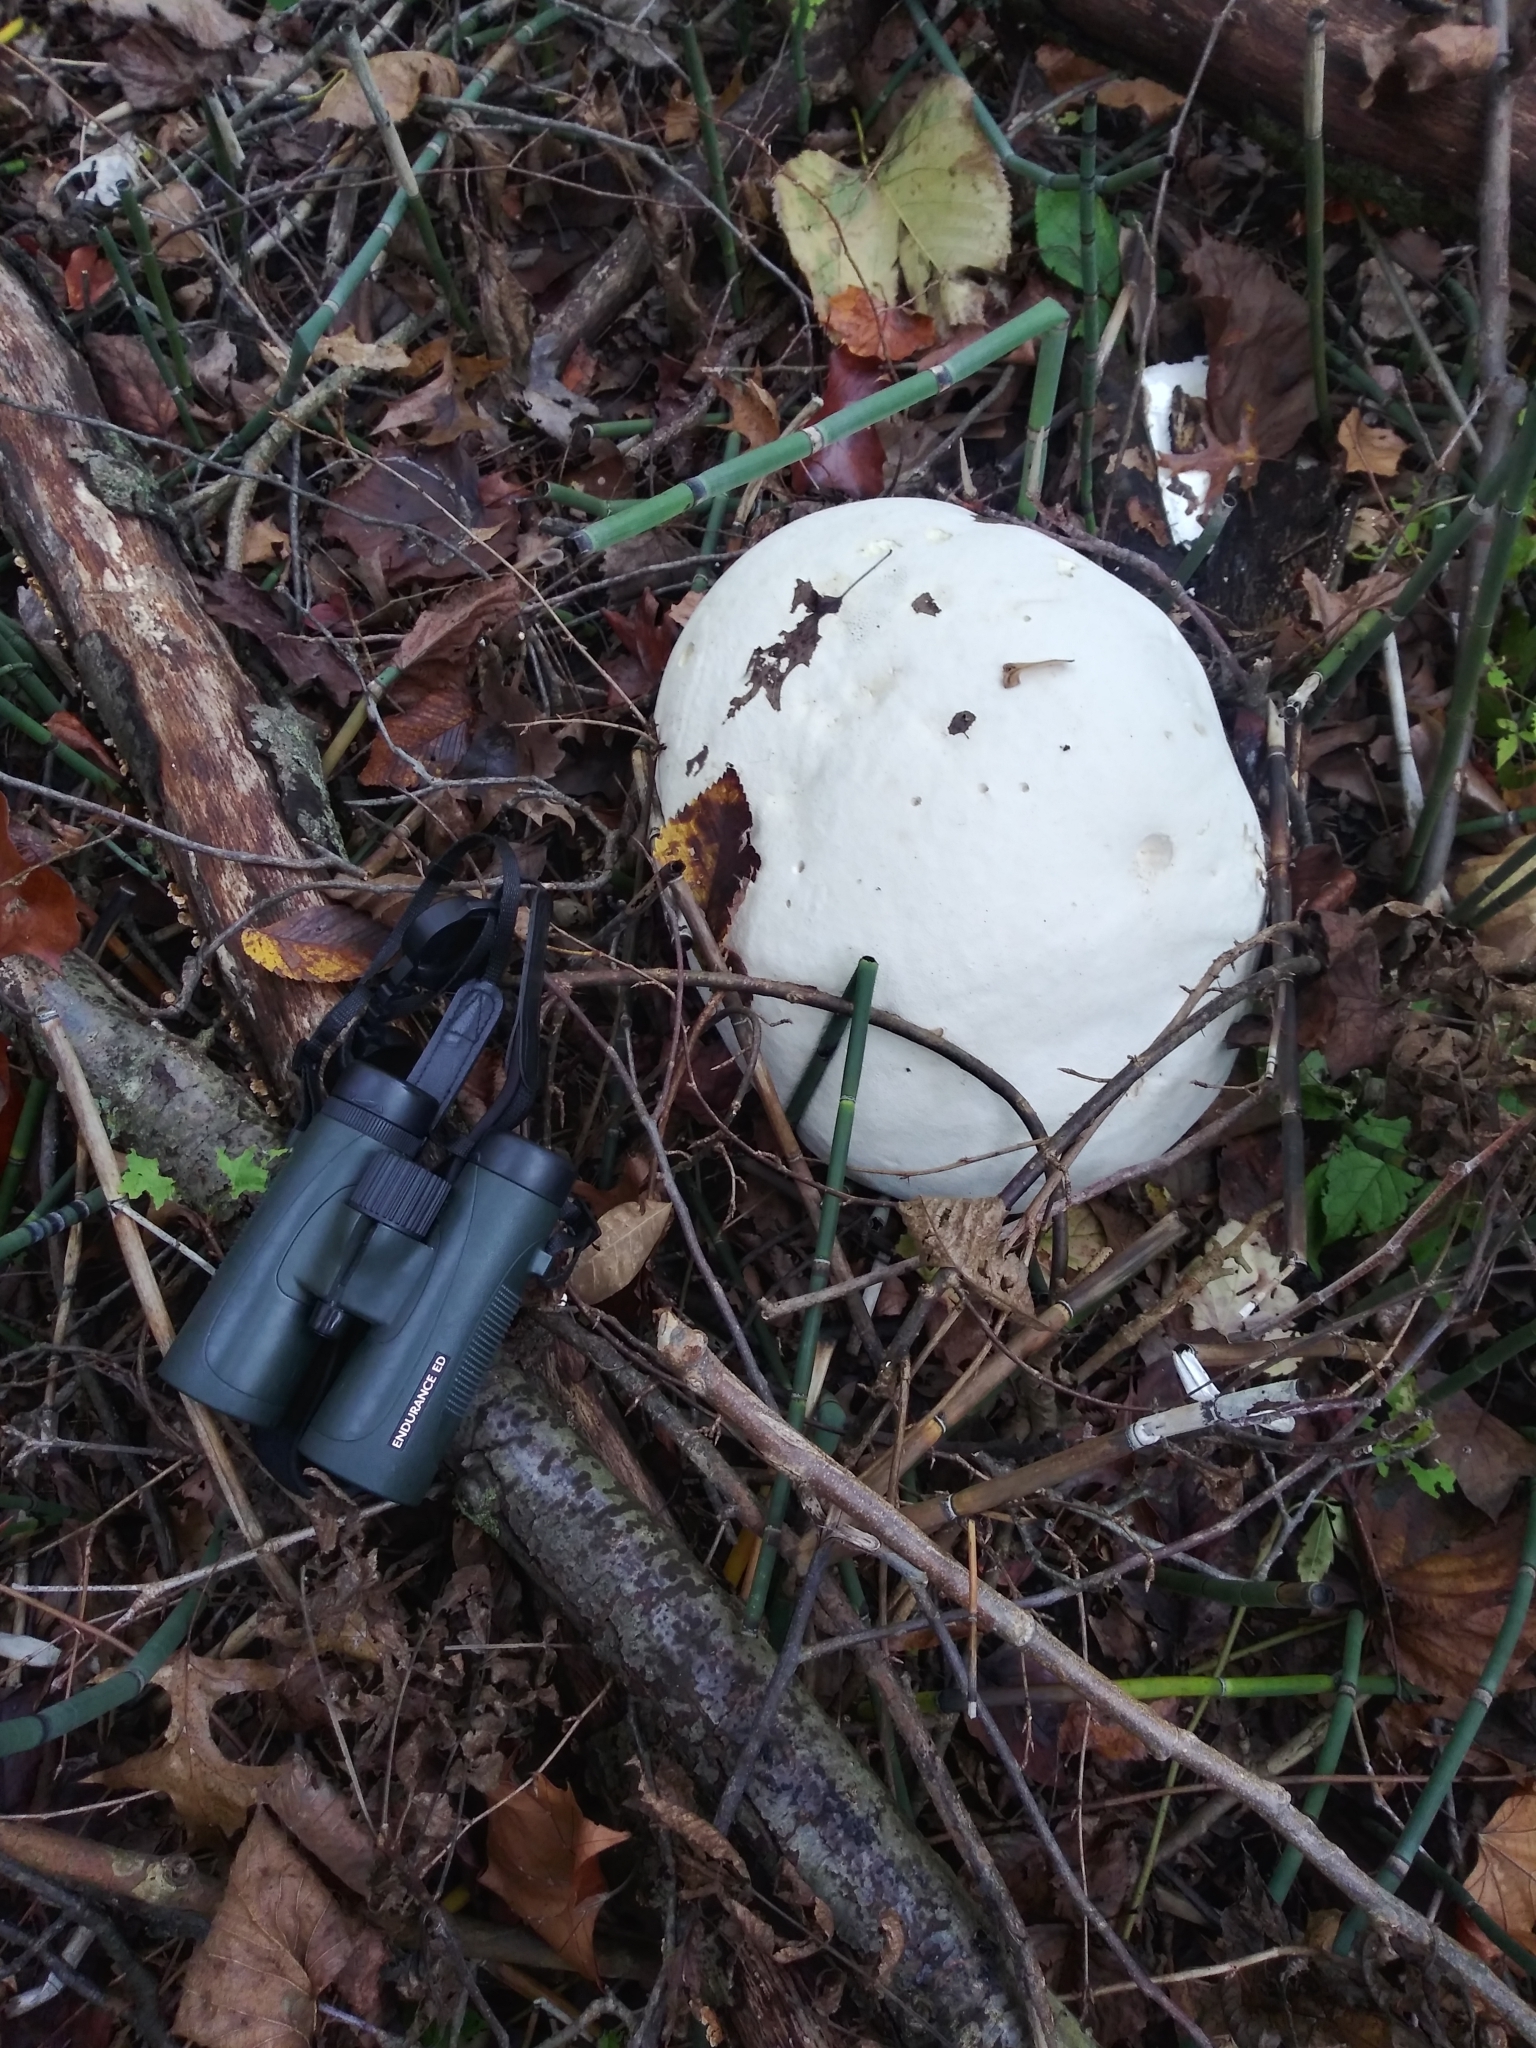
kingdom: Fungi
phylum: Basidiomycota
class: Agaricomycetes
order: Agaricales
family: Lycoperdaceae
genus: Calvatia
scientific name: Calvatia gigantea
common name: Giant puffball
